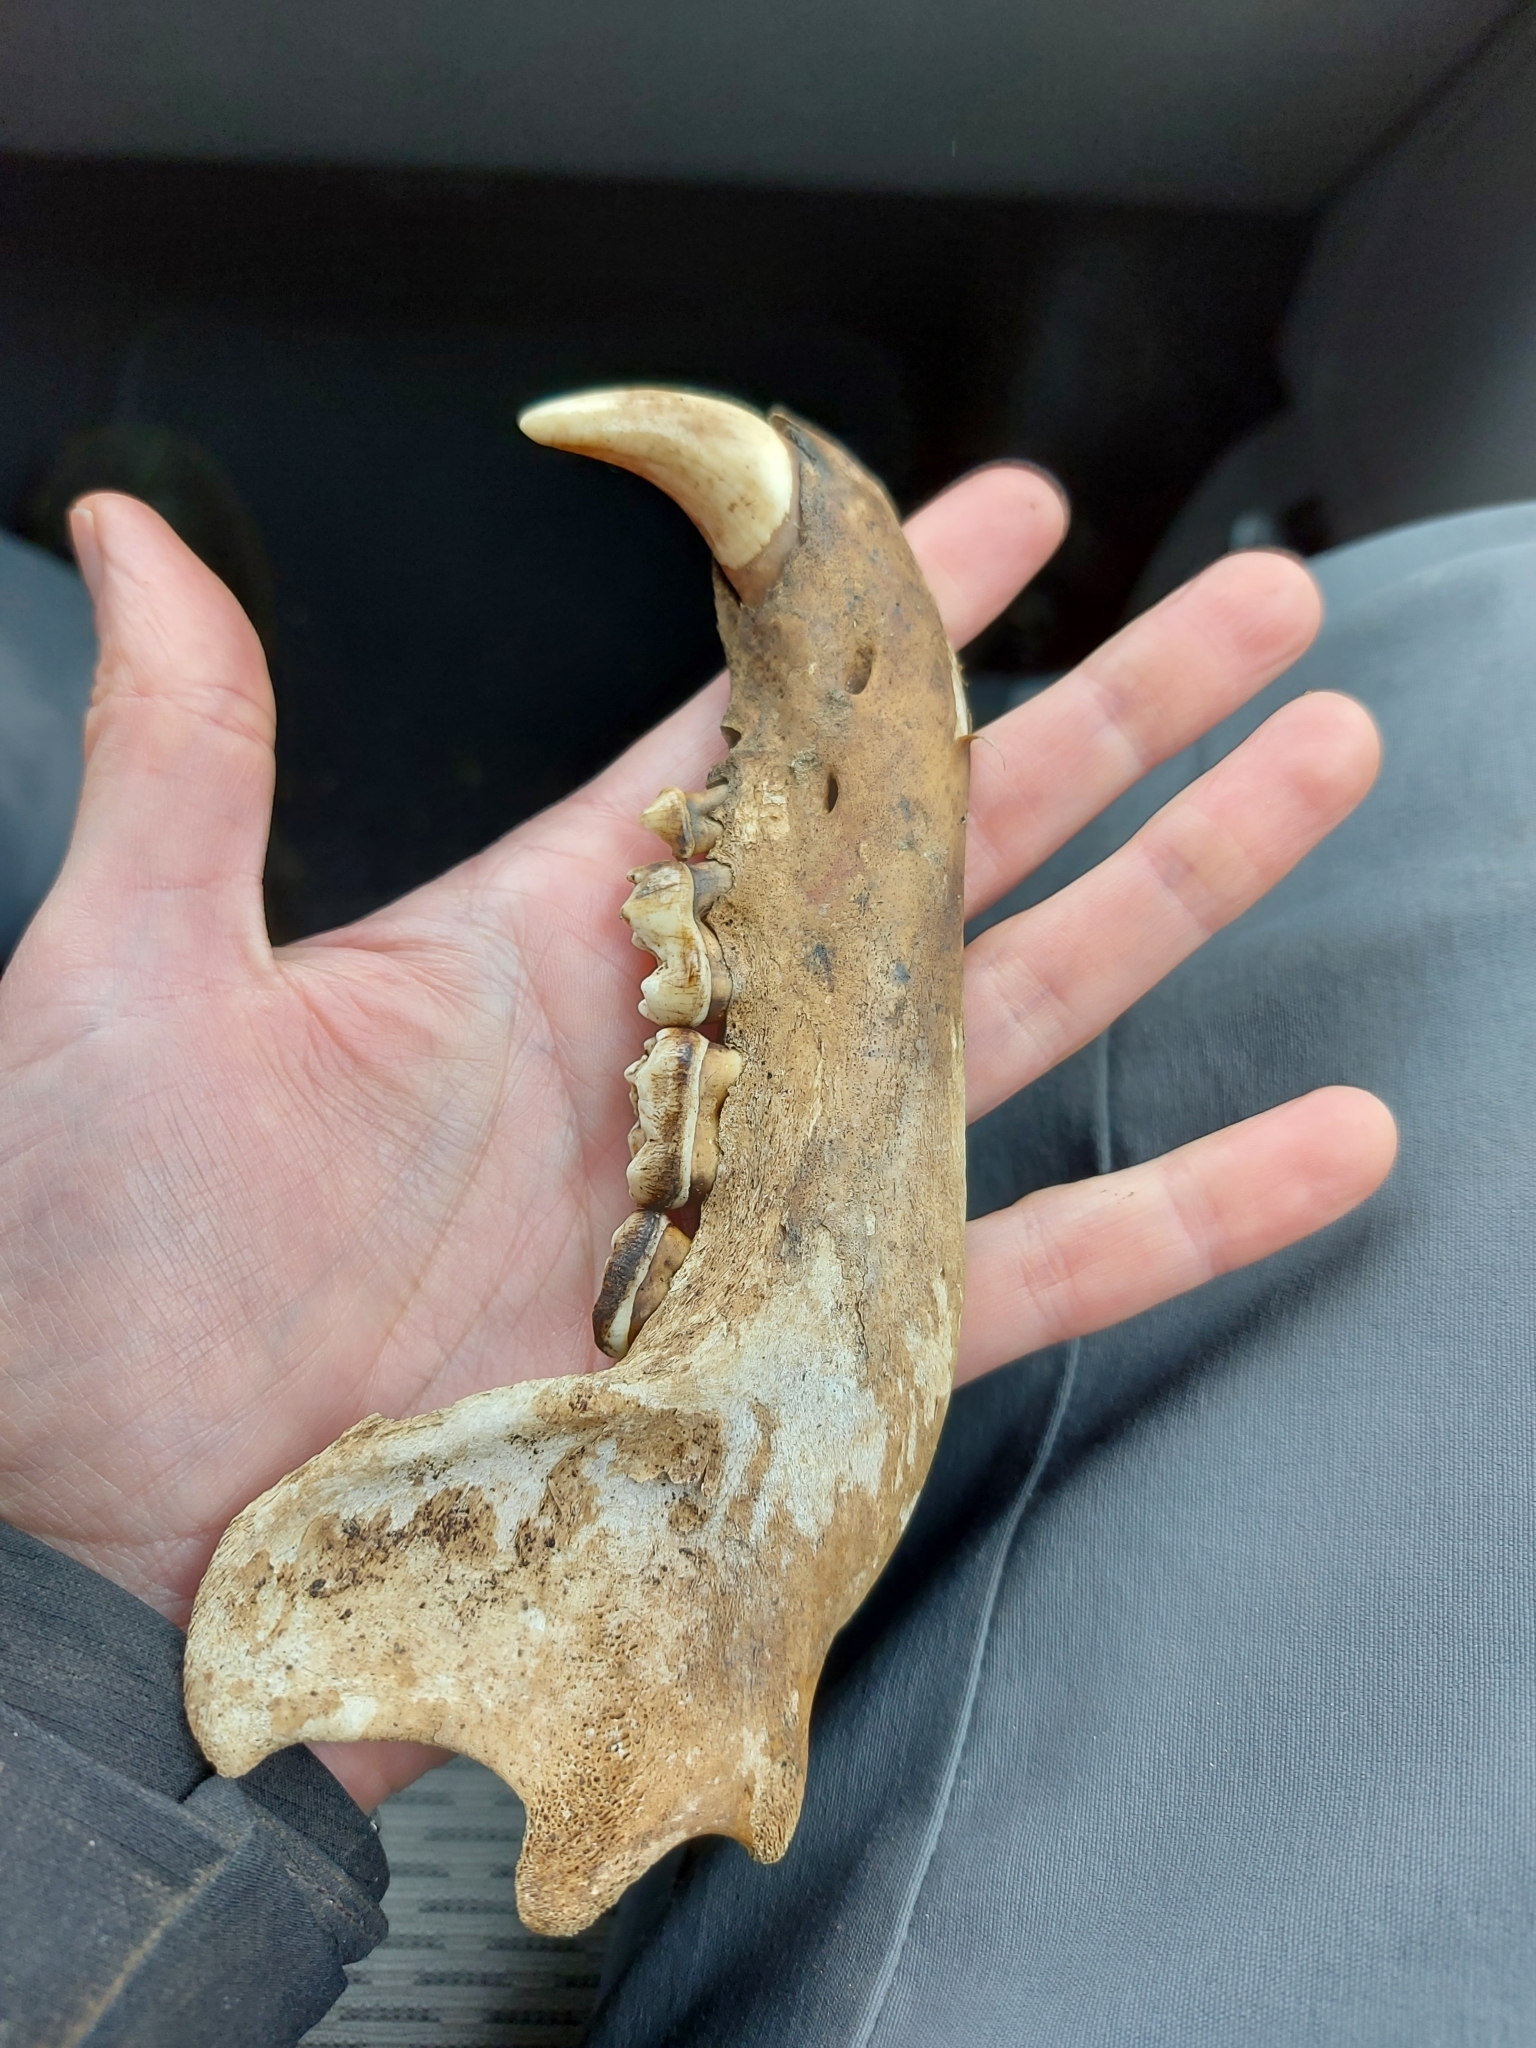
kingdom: Animalia
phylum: Chordata
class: Mammalia
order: Carnivora
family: Ursidae
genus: Ursus
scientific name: Ursus americanus
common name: American black bear
